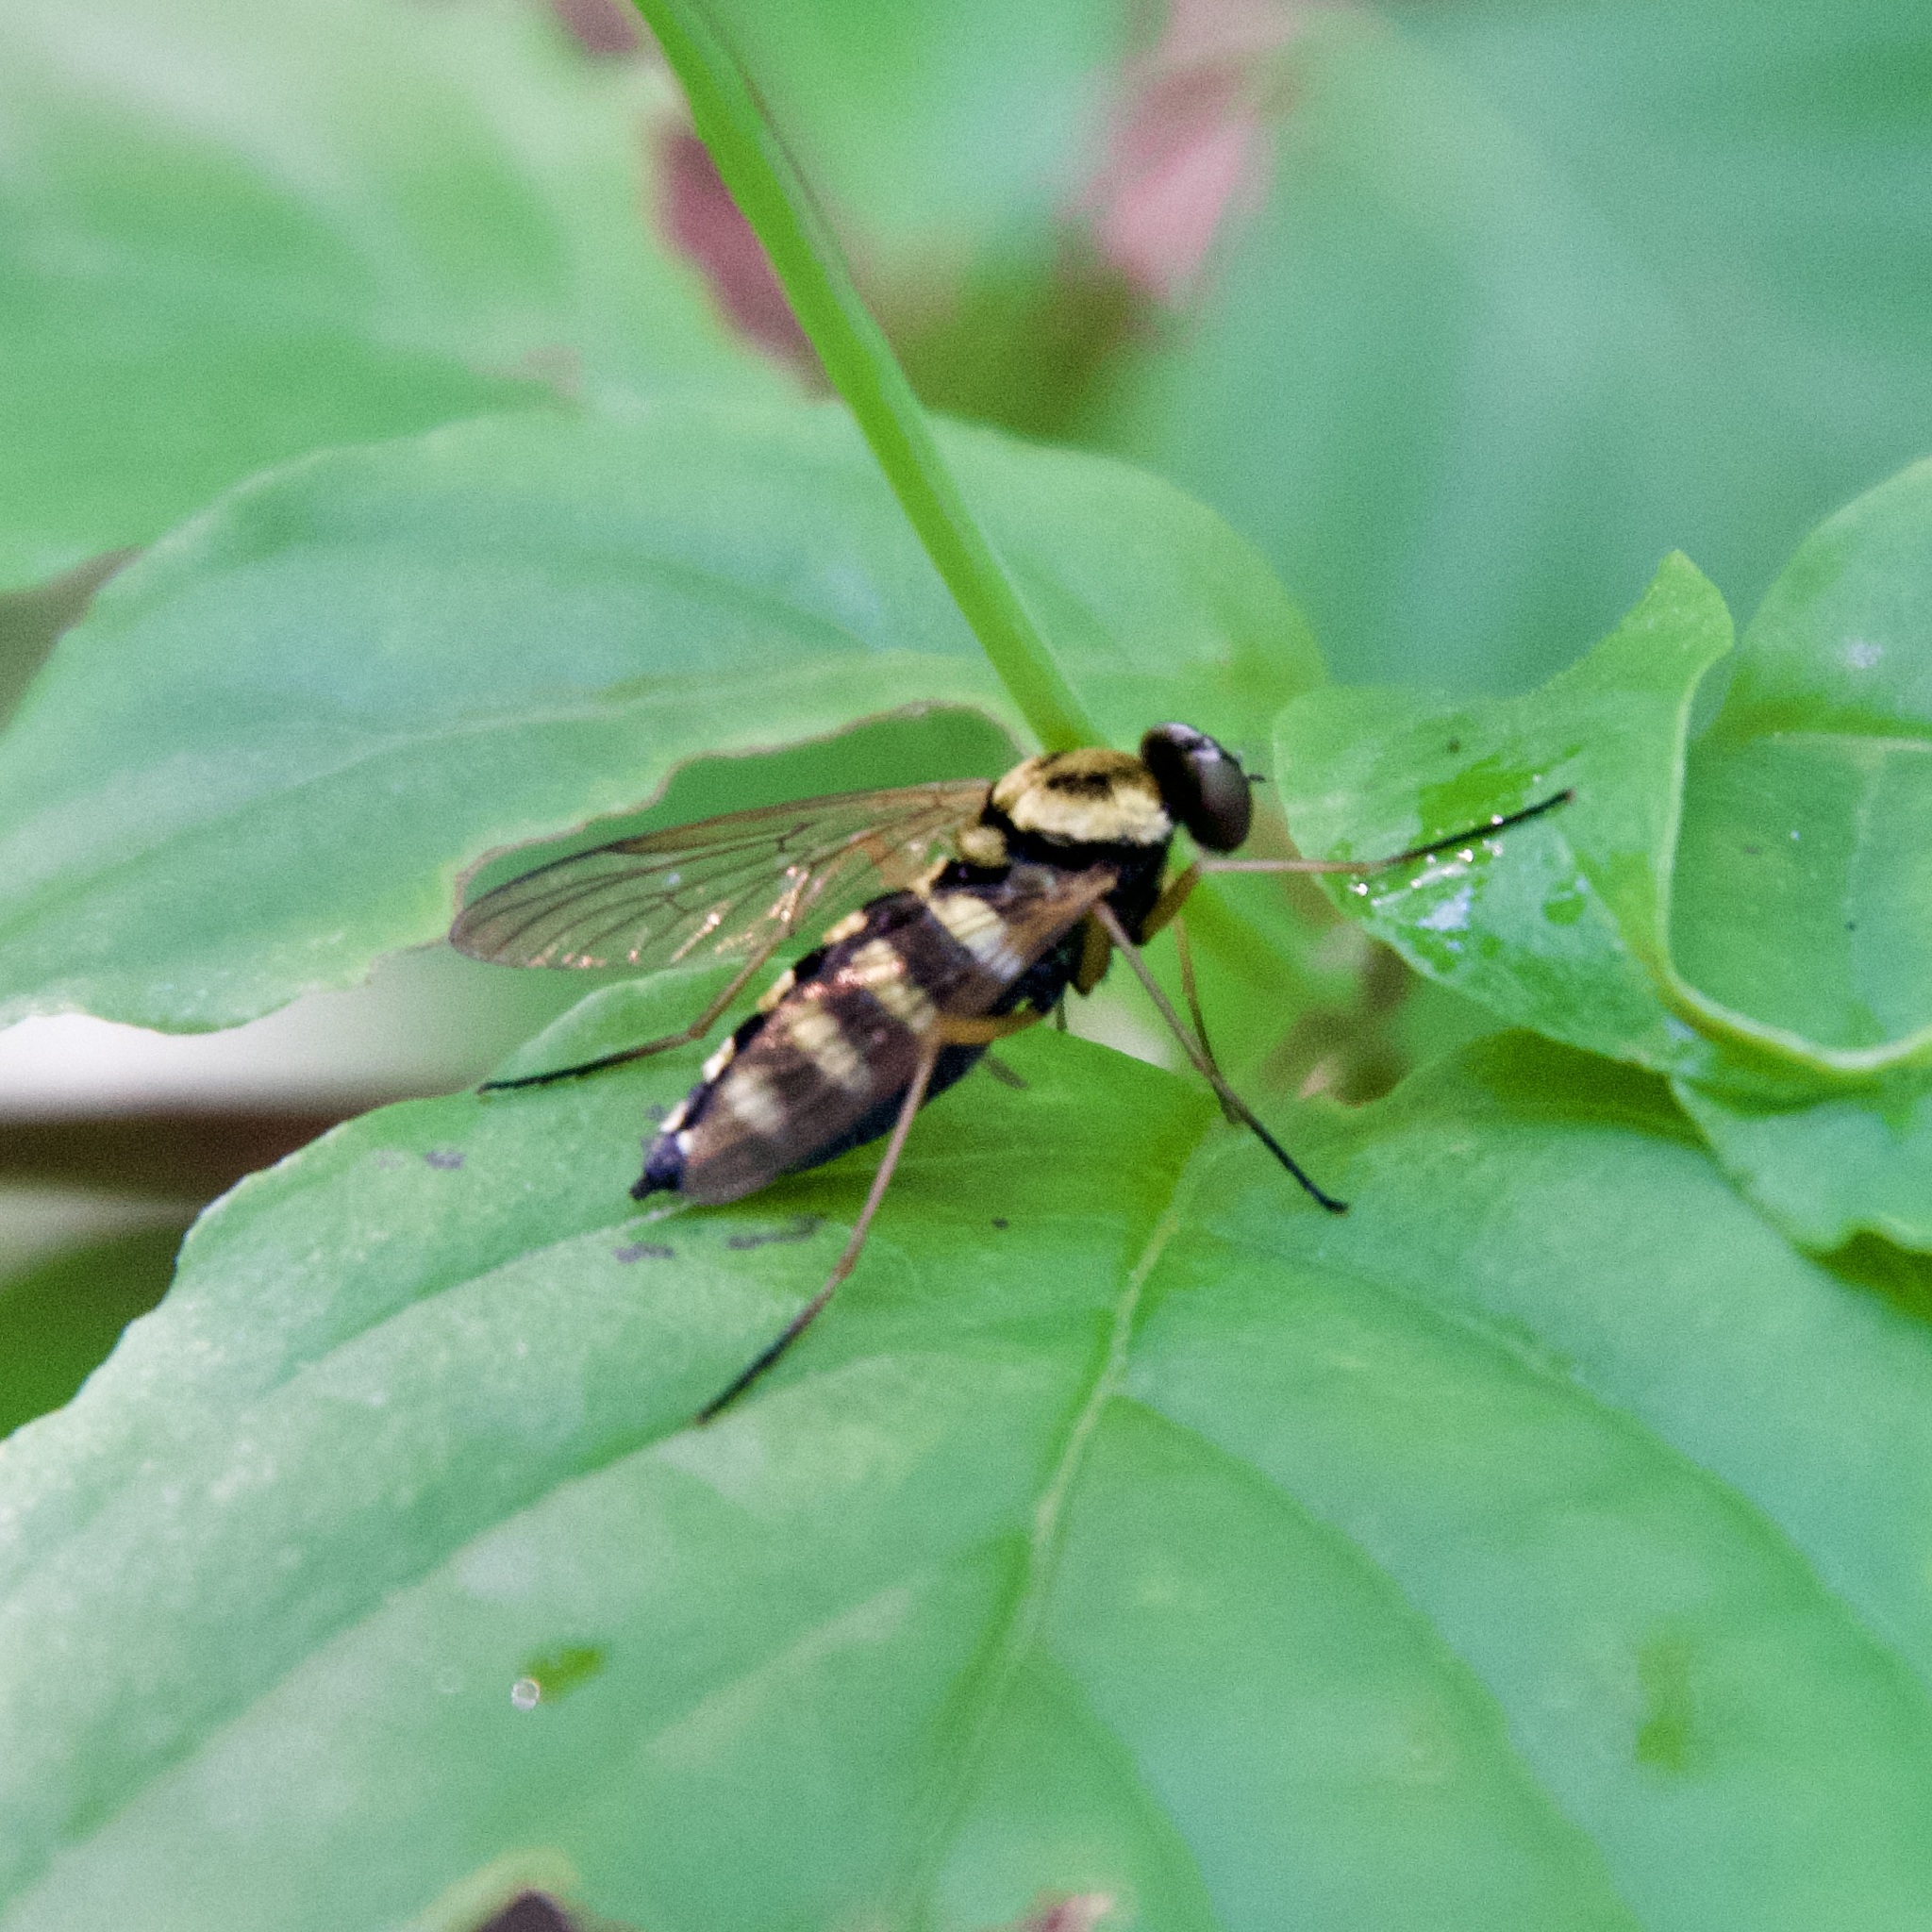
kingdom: Animalia
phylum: Arthropoda
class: Insecta
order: Diptera
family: Rhagionidae
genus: Chrysopilus
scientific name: Chrysopilus ornatus
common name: Ornate snipe fly
